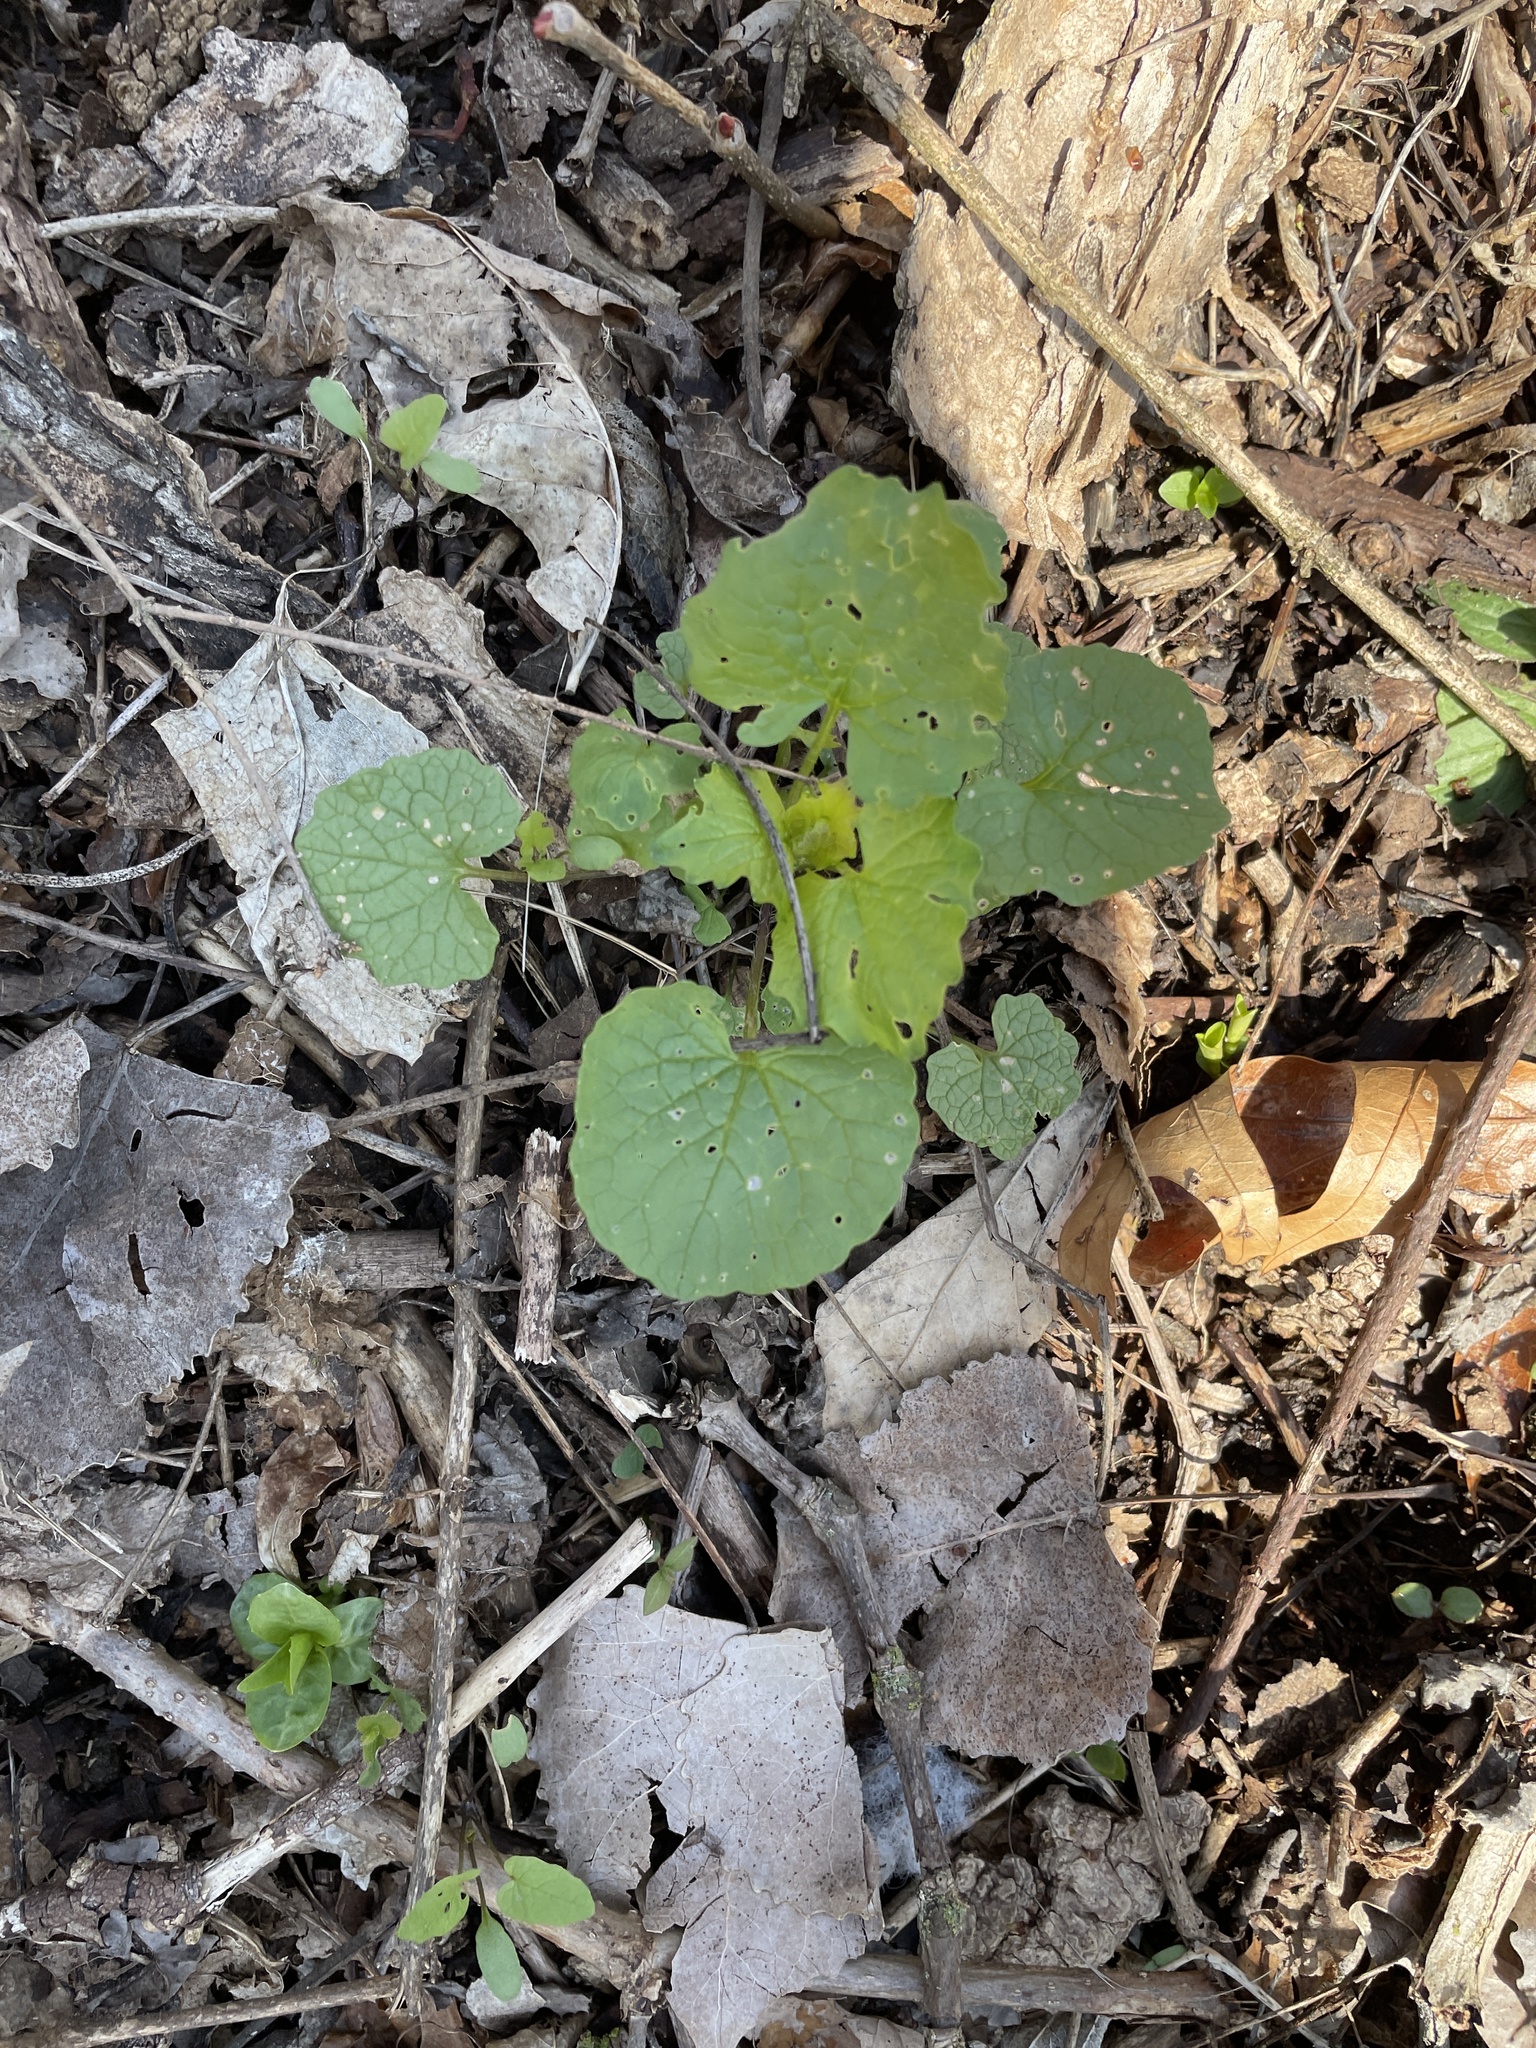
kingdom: Plantae
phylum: Tracheophyta
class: Magnoliopsida
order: Brassicales
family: Brassicaceae
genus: Alliaria
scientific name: Alliaria petiolata
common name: Garlic mustard
